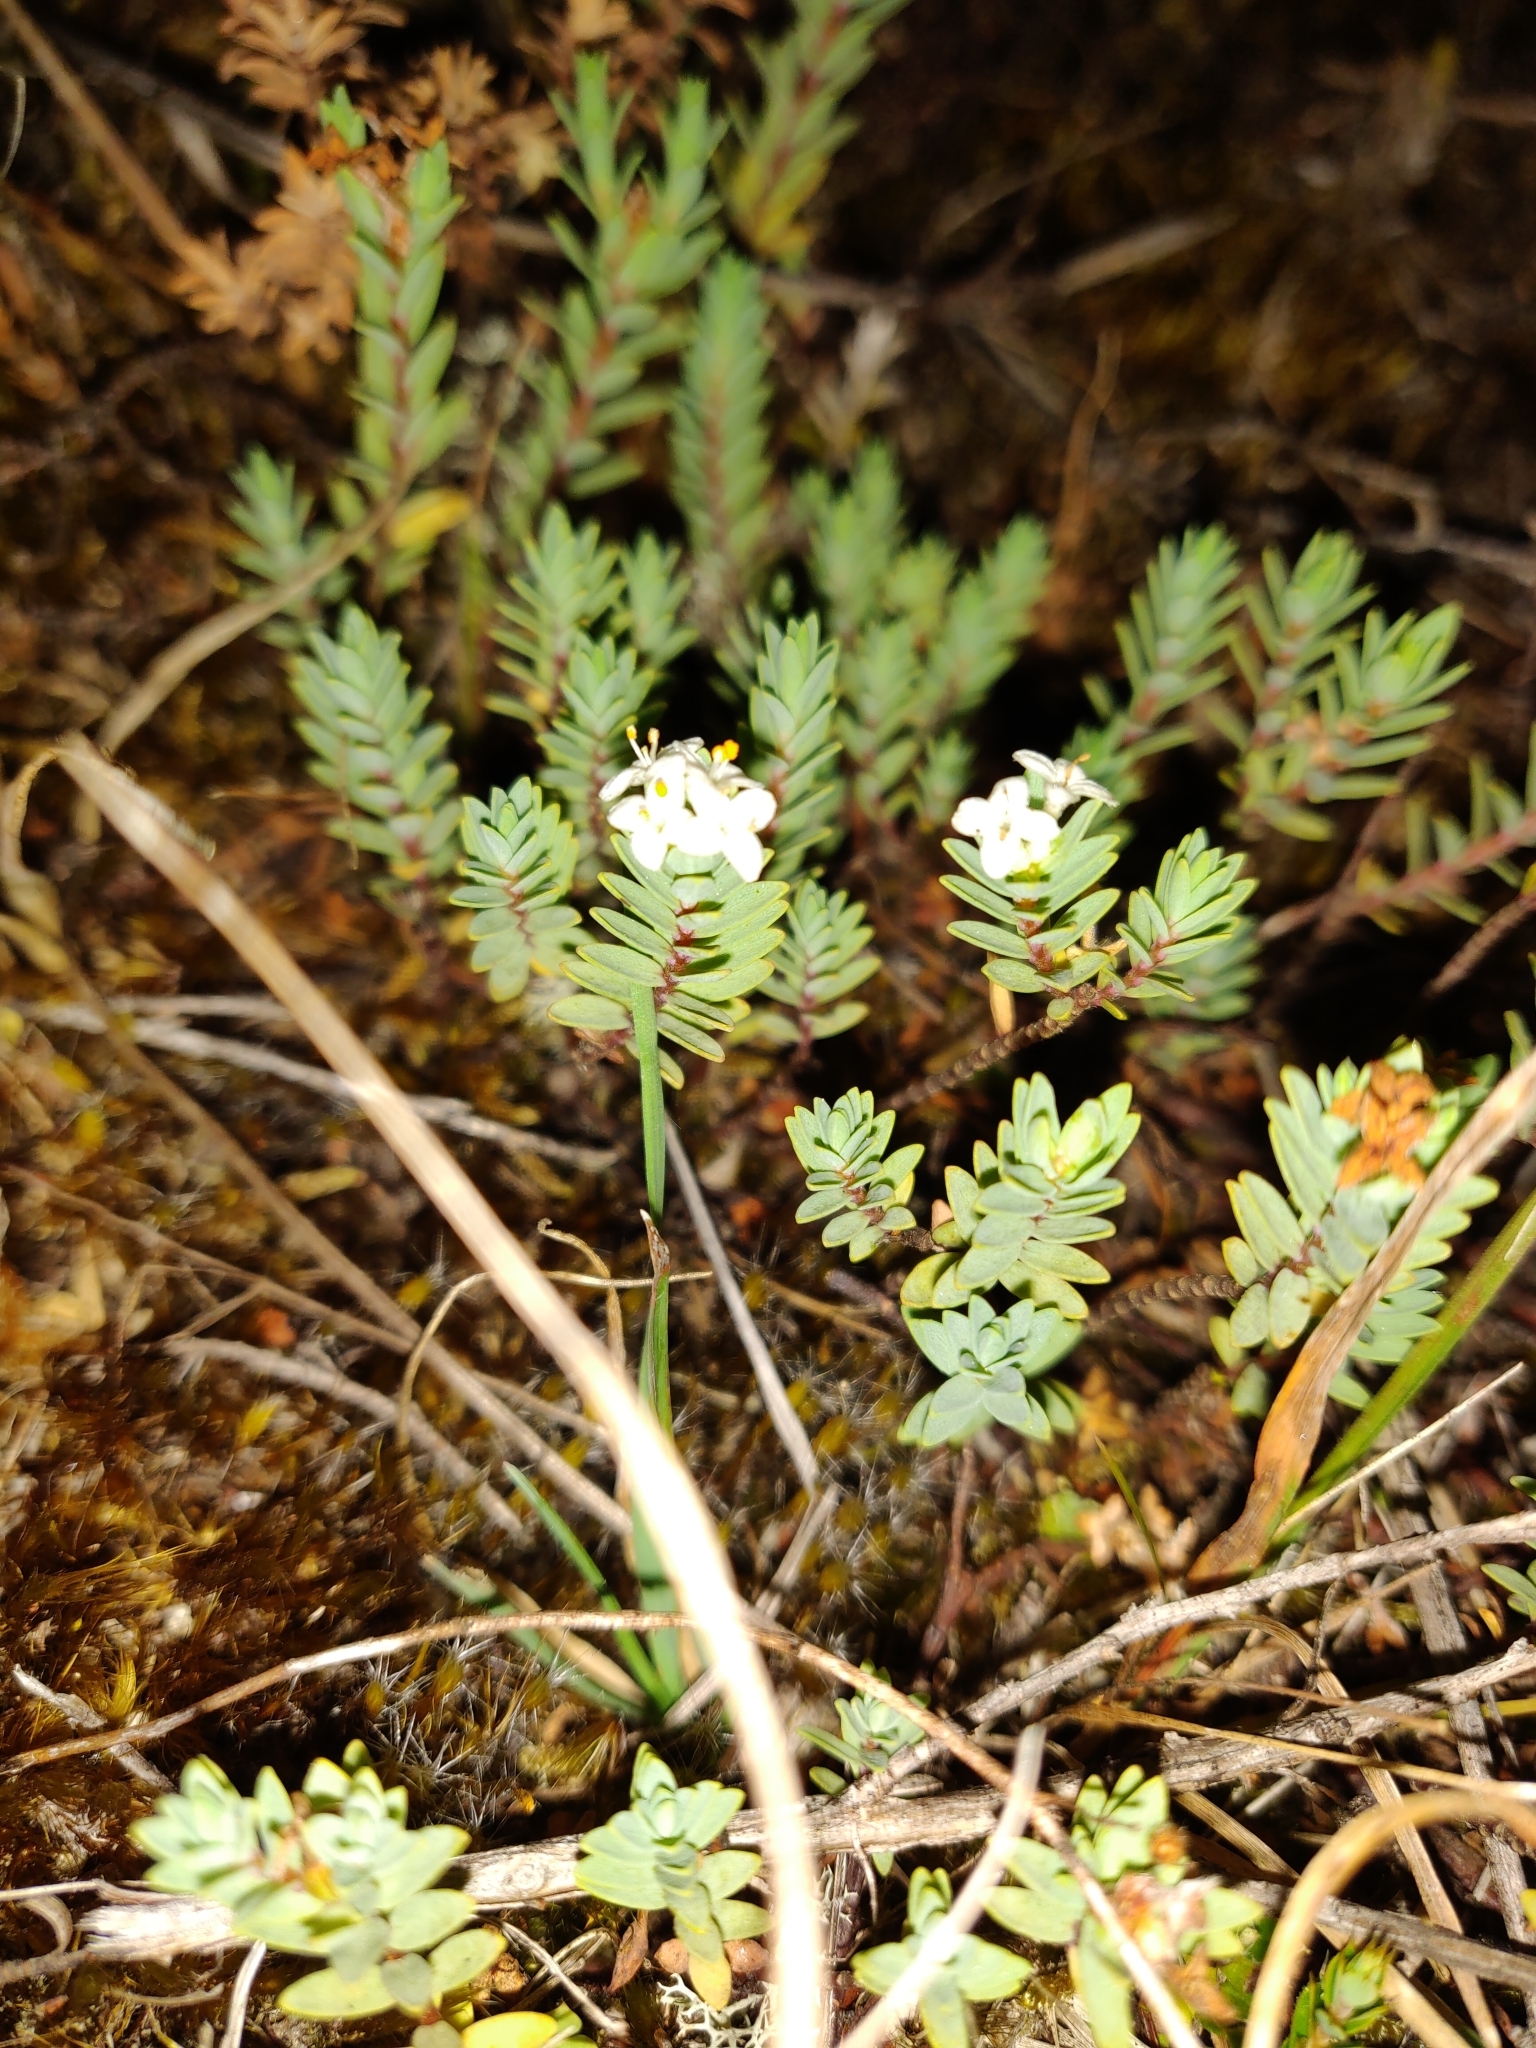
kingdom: Plantae
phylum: Tracheophyta
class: Magnoliopsida
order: Malvales
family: Thymelaeaceae
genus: Pimelea
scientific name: Pimelea prostrata
